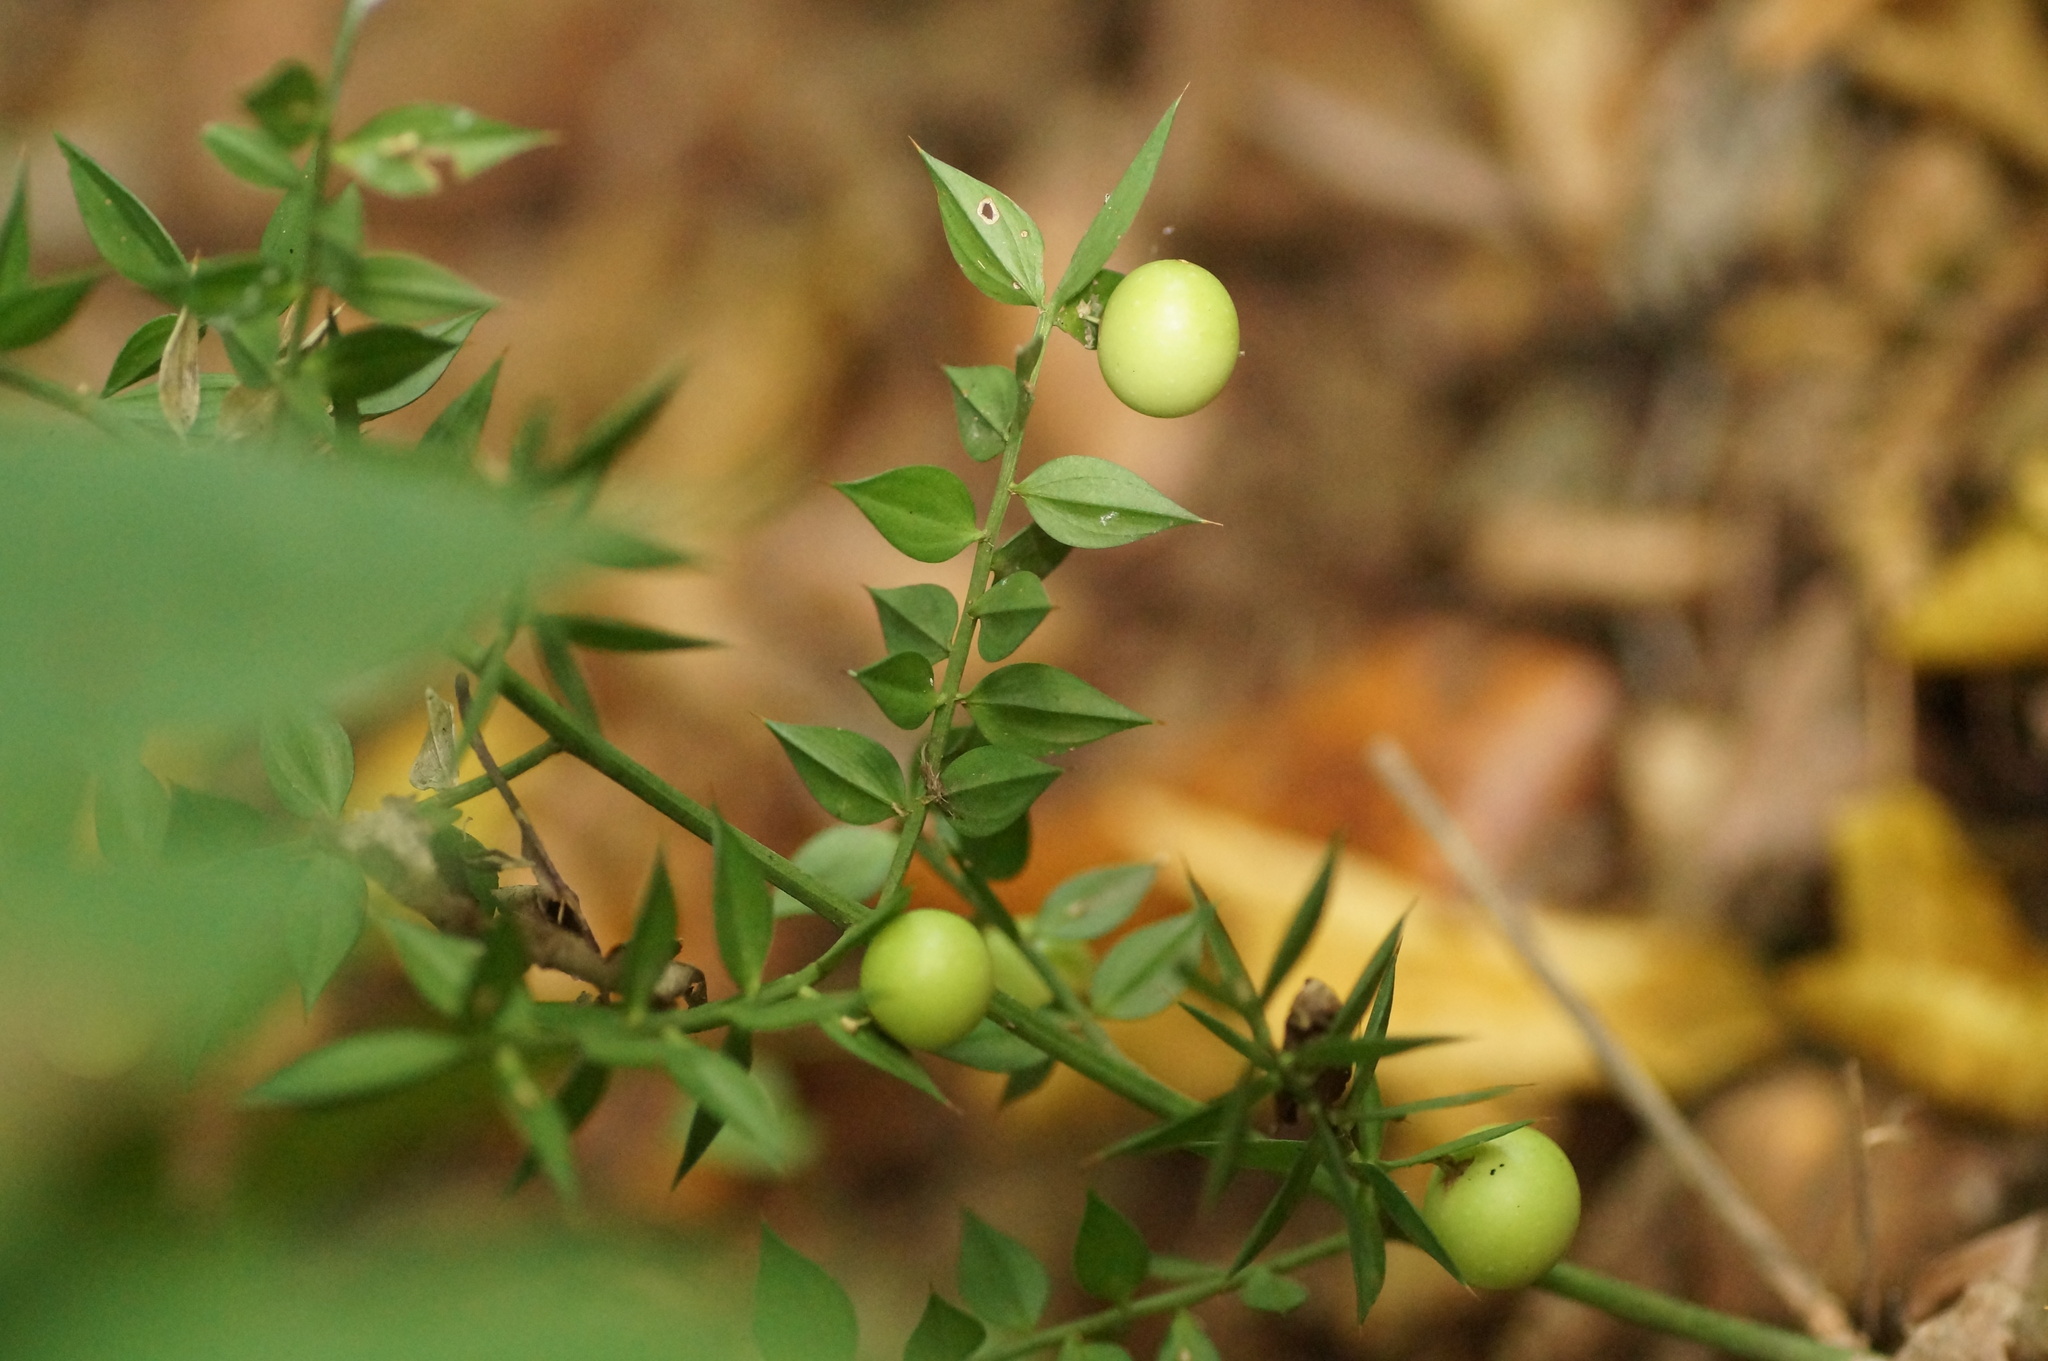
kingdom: Plantae
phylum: Tracheophyta
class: Liliopsida
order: Asparagales
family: Asparagaceae
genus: Ruscus
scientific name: Ruscus aculeatus
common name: Butcher's-broom
